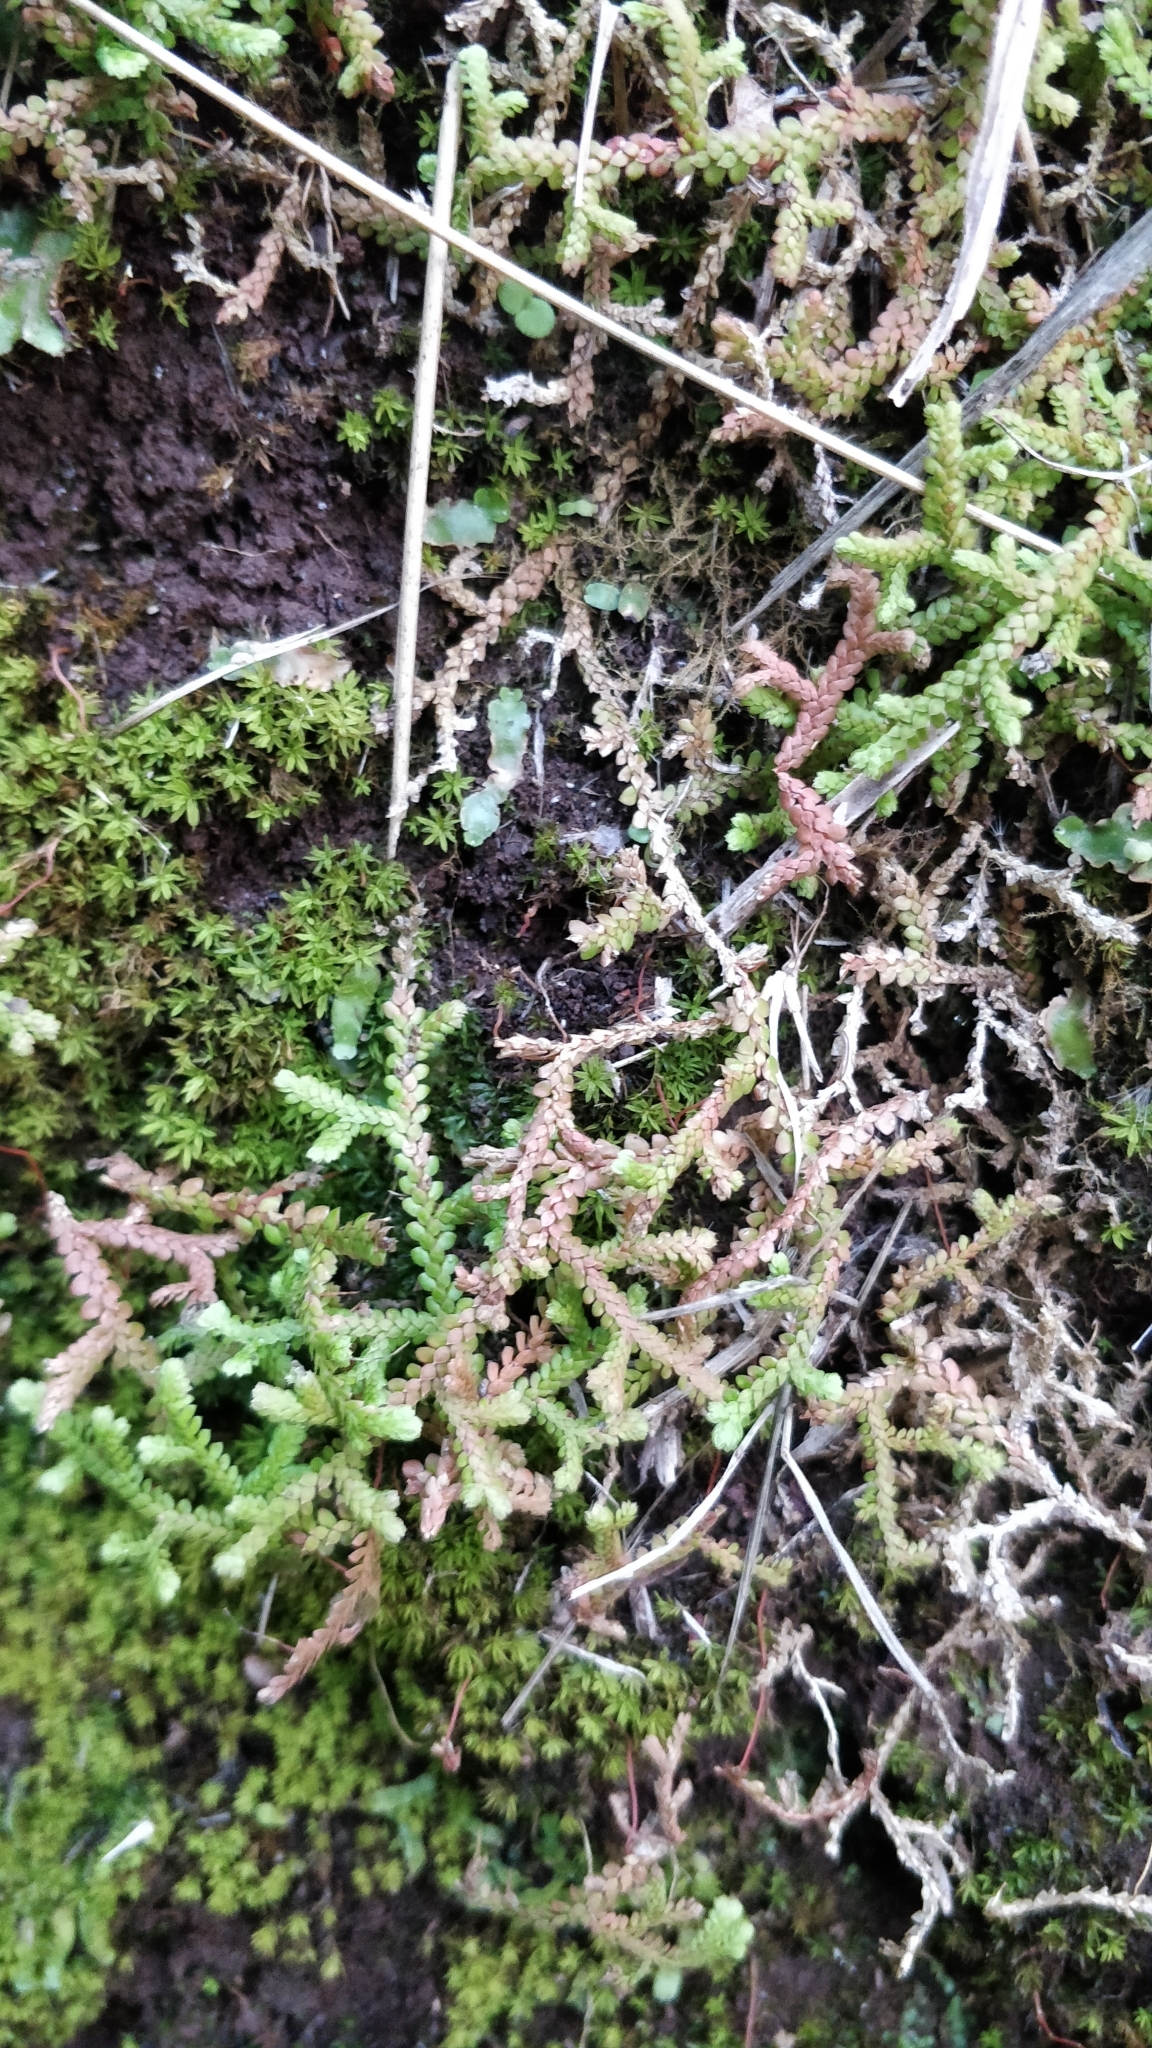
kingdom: Plantae
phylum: Tracheophyta
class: Lycopodiopsida
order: Selaginellales
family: Selaginellaceae
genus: Selaginella
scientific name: Selaginella denticulata
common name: Toothed-leaved clubmoss
